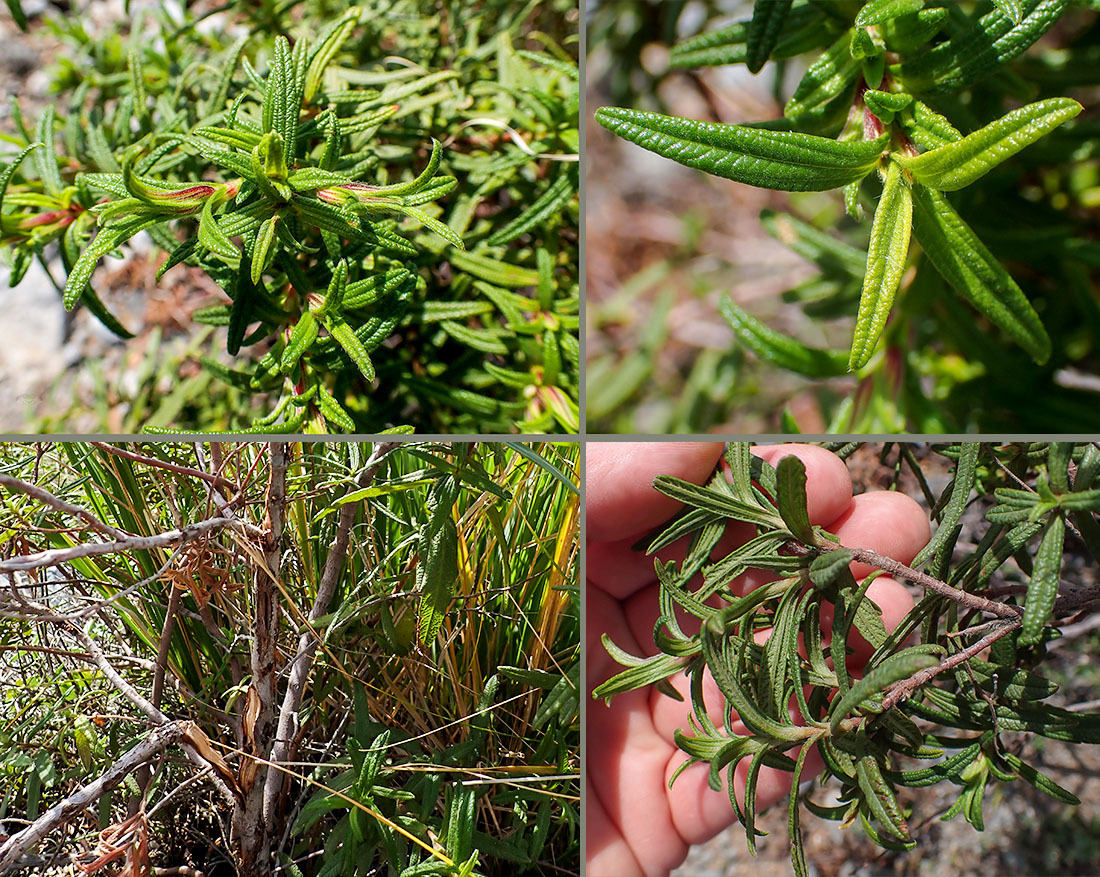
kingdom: Plantae
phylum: Tracheophyta
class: Magnoliopsida
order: Malvales
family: Cistaceae
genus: Cistus
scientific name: Cistus monspeliensis
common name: Montpelier cistus
